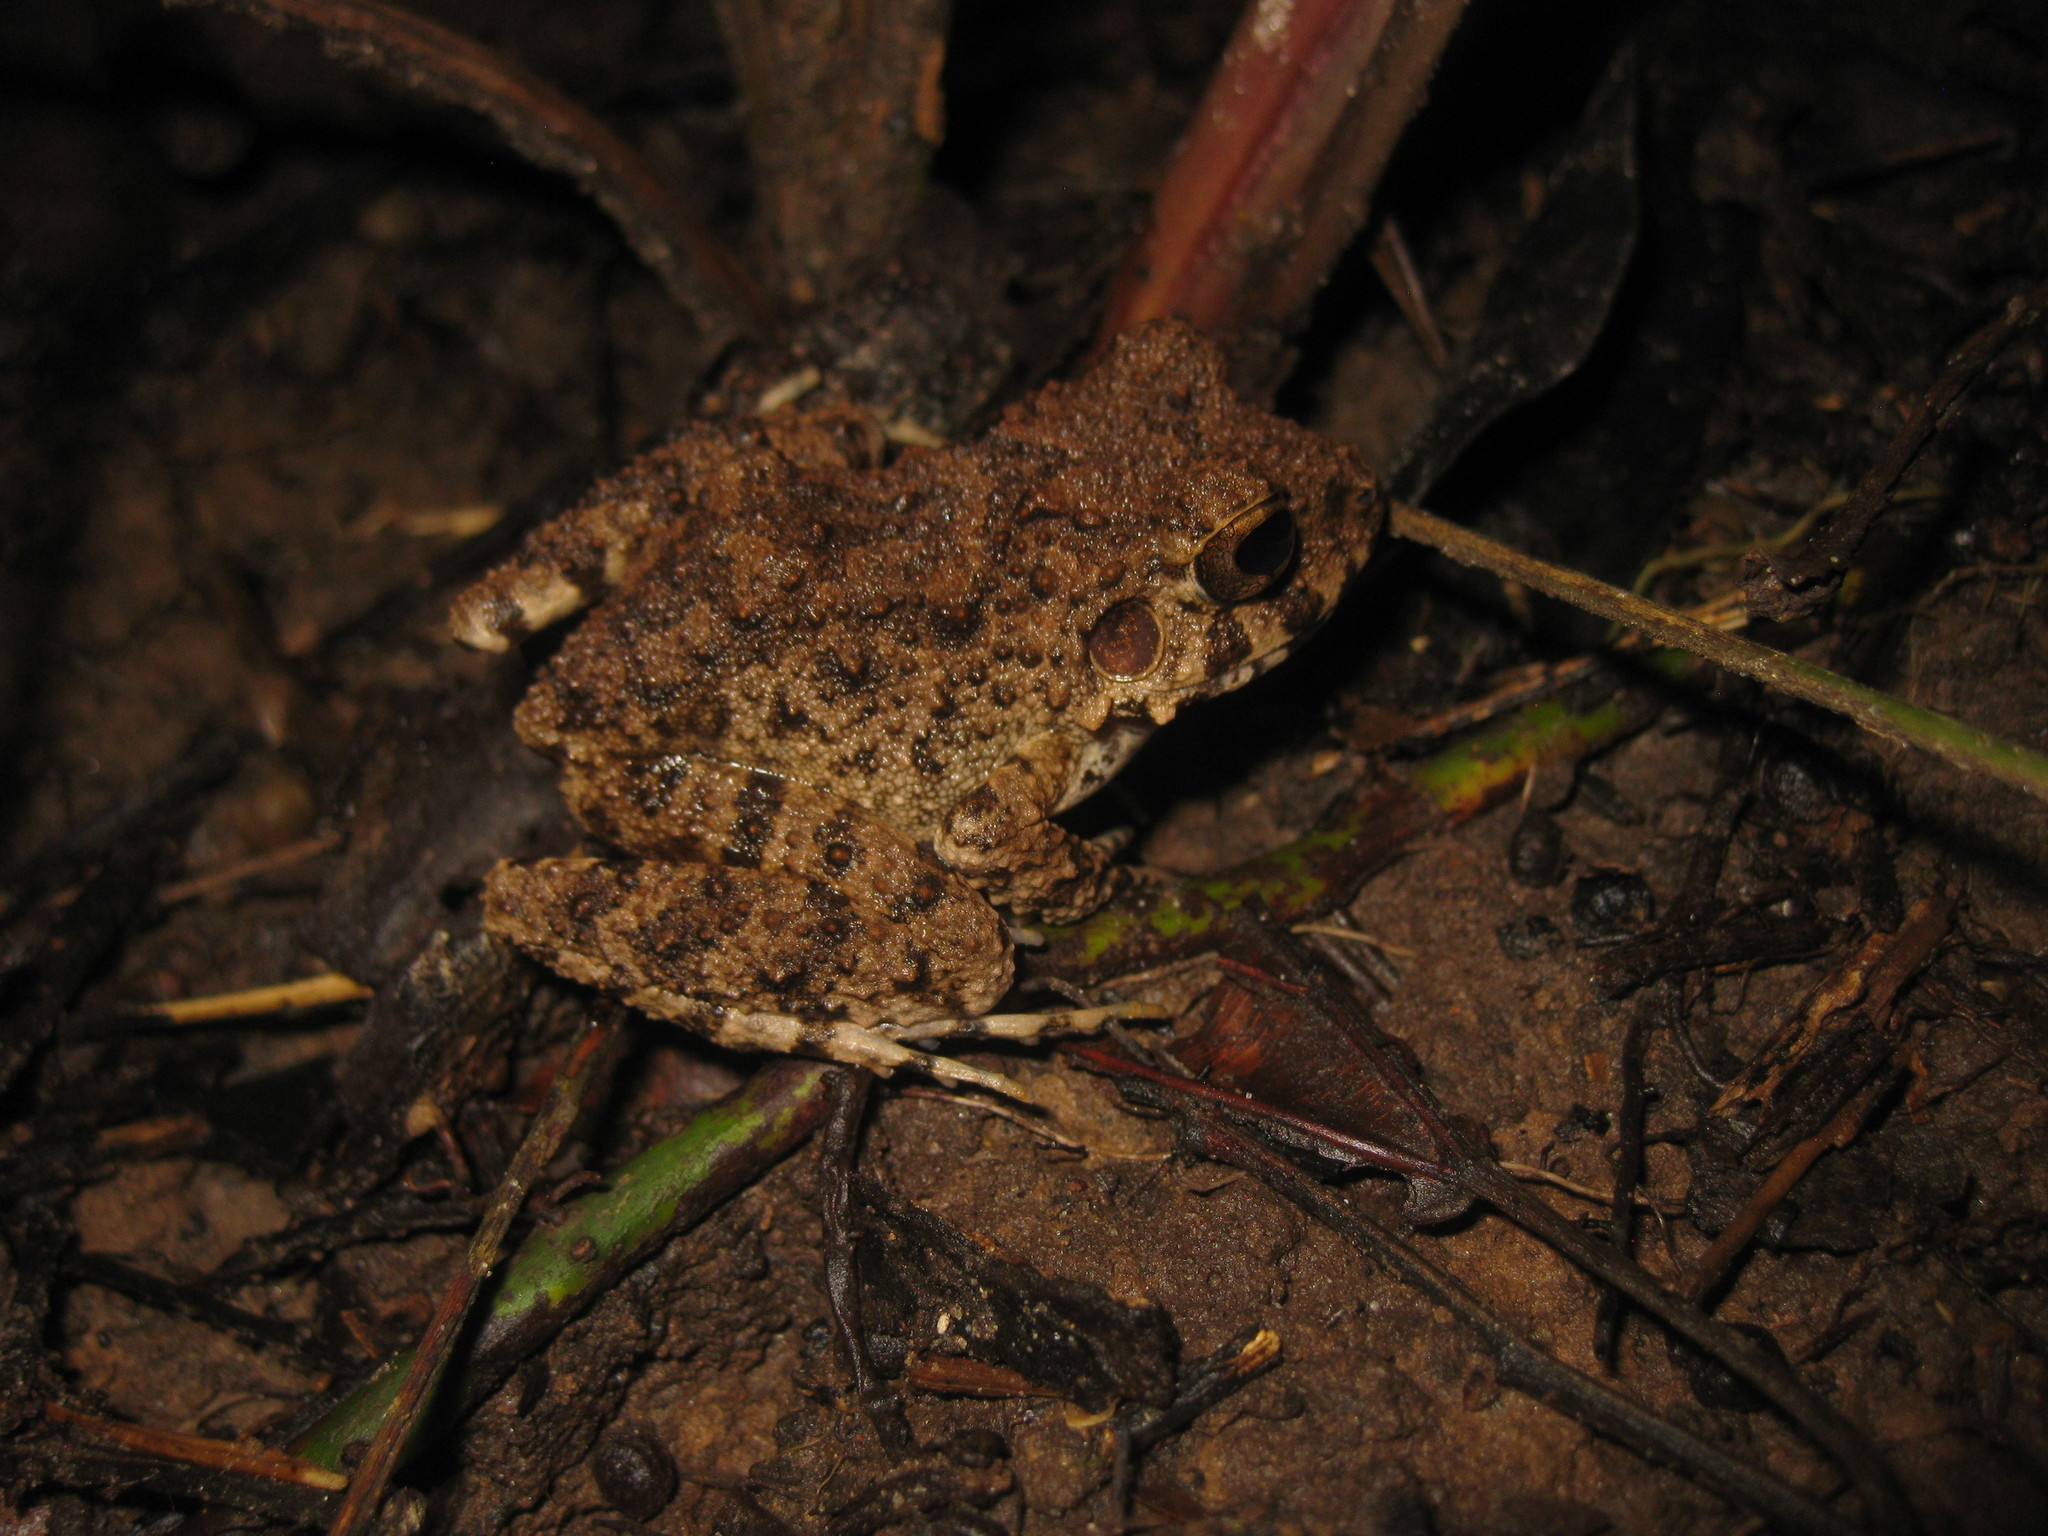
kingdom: Animalia
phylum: Chordata
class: Amphibia
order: Anura
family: Craugastoridae
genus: Oreobates
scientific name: Oreobates quixensis
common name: Common big-headed frog
